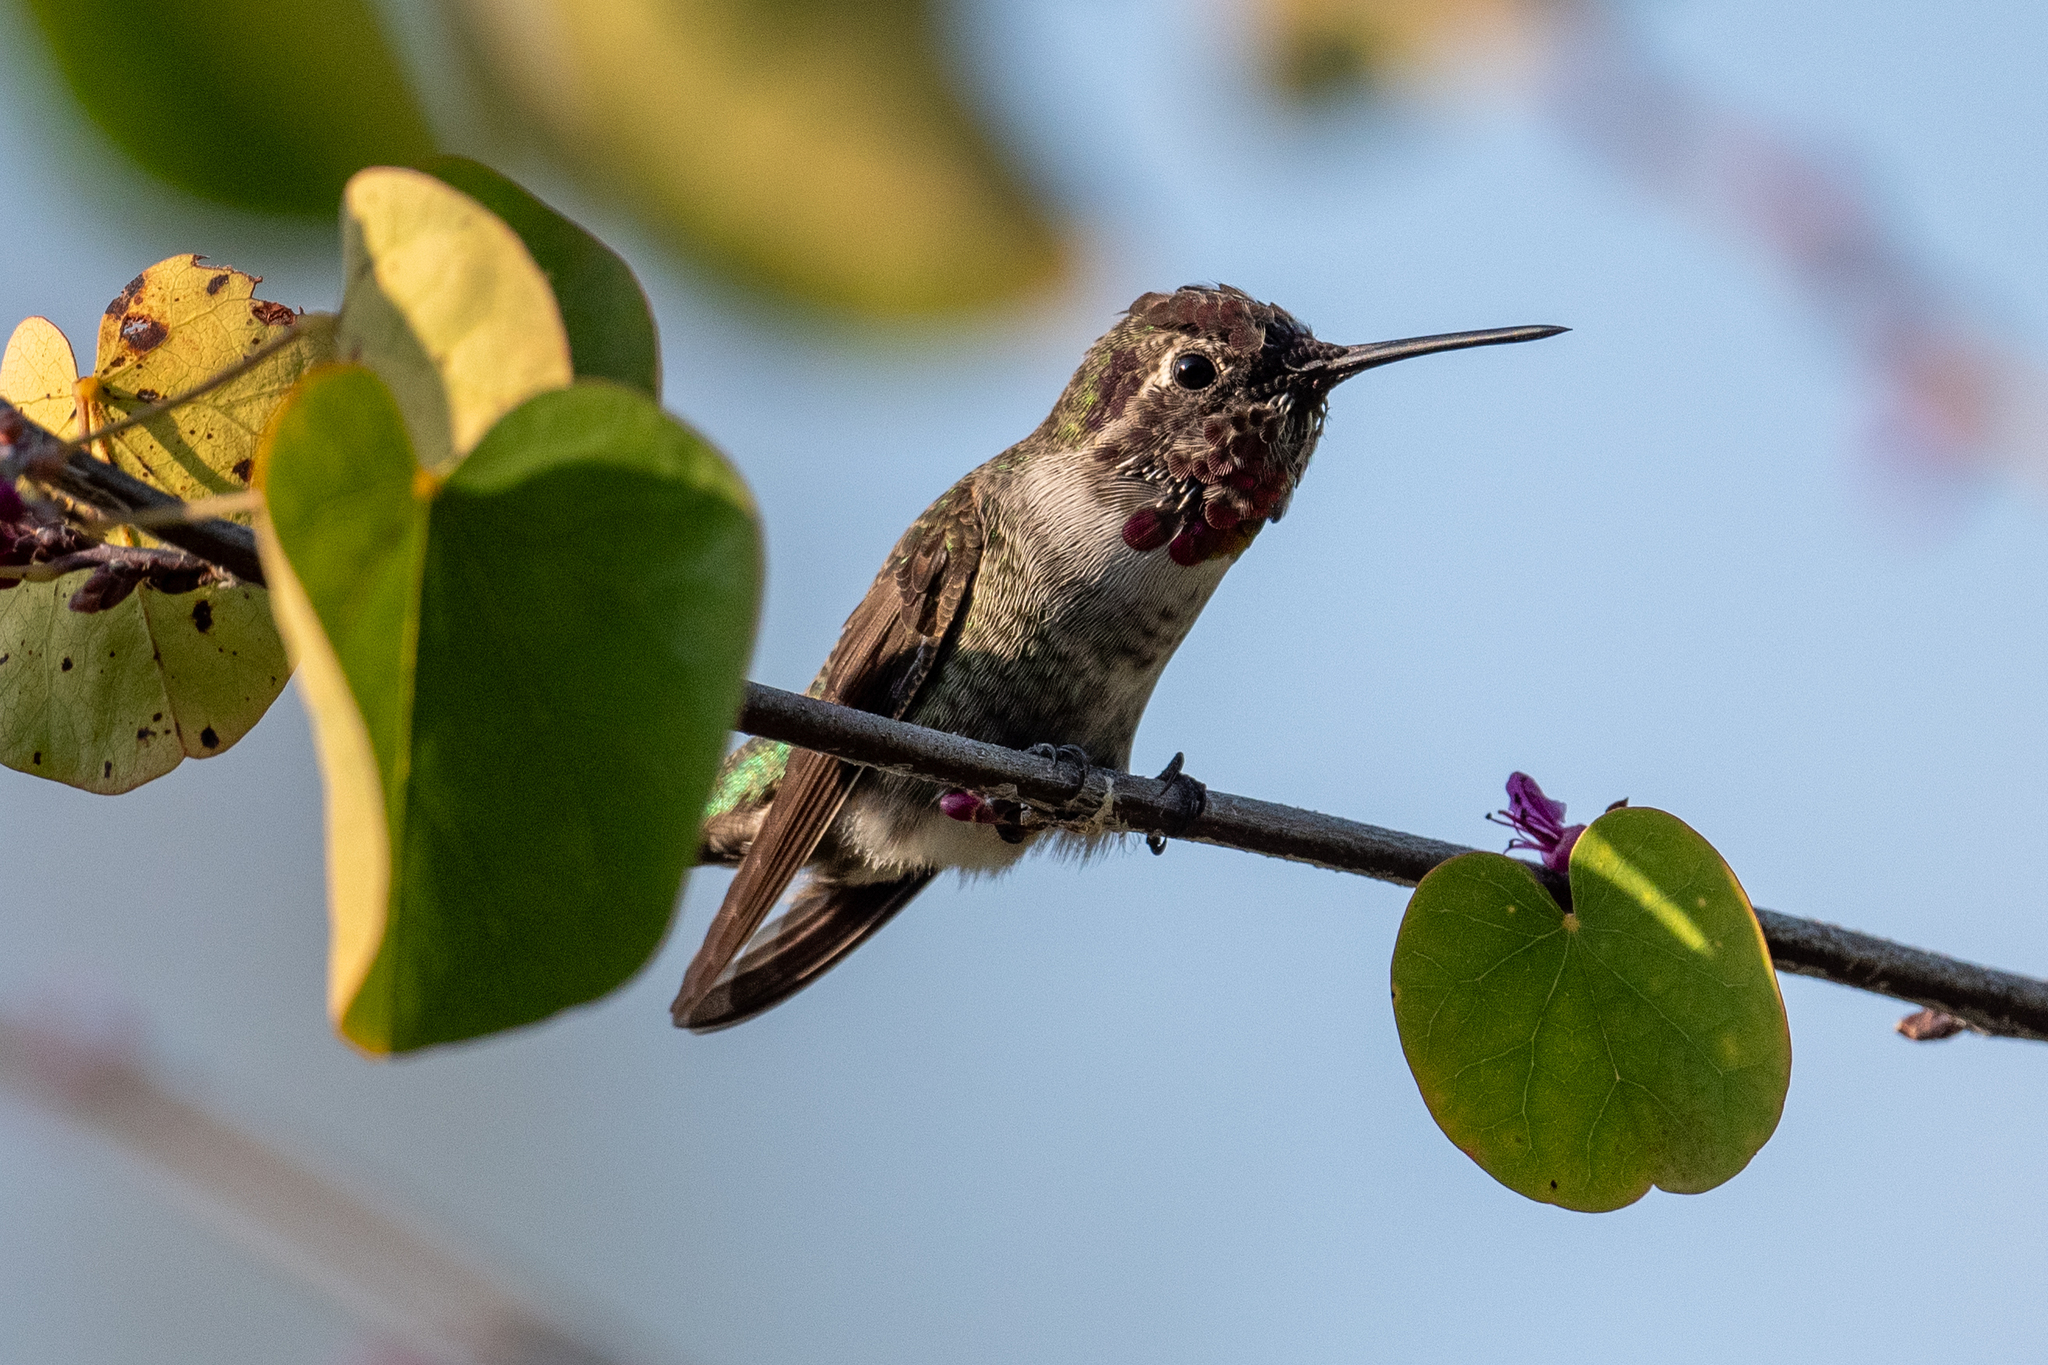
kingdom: Animalia
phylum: Chordata
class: Aves
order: Apodiformes
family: Trochilidae
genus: Calypte
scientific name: Calypte anna
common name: Anna's hummingbird
